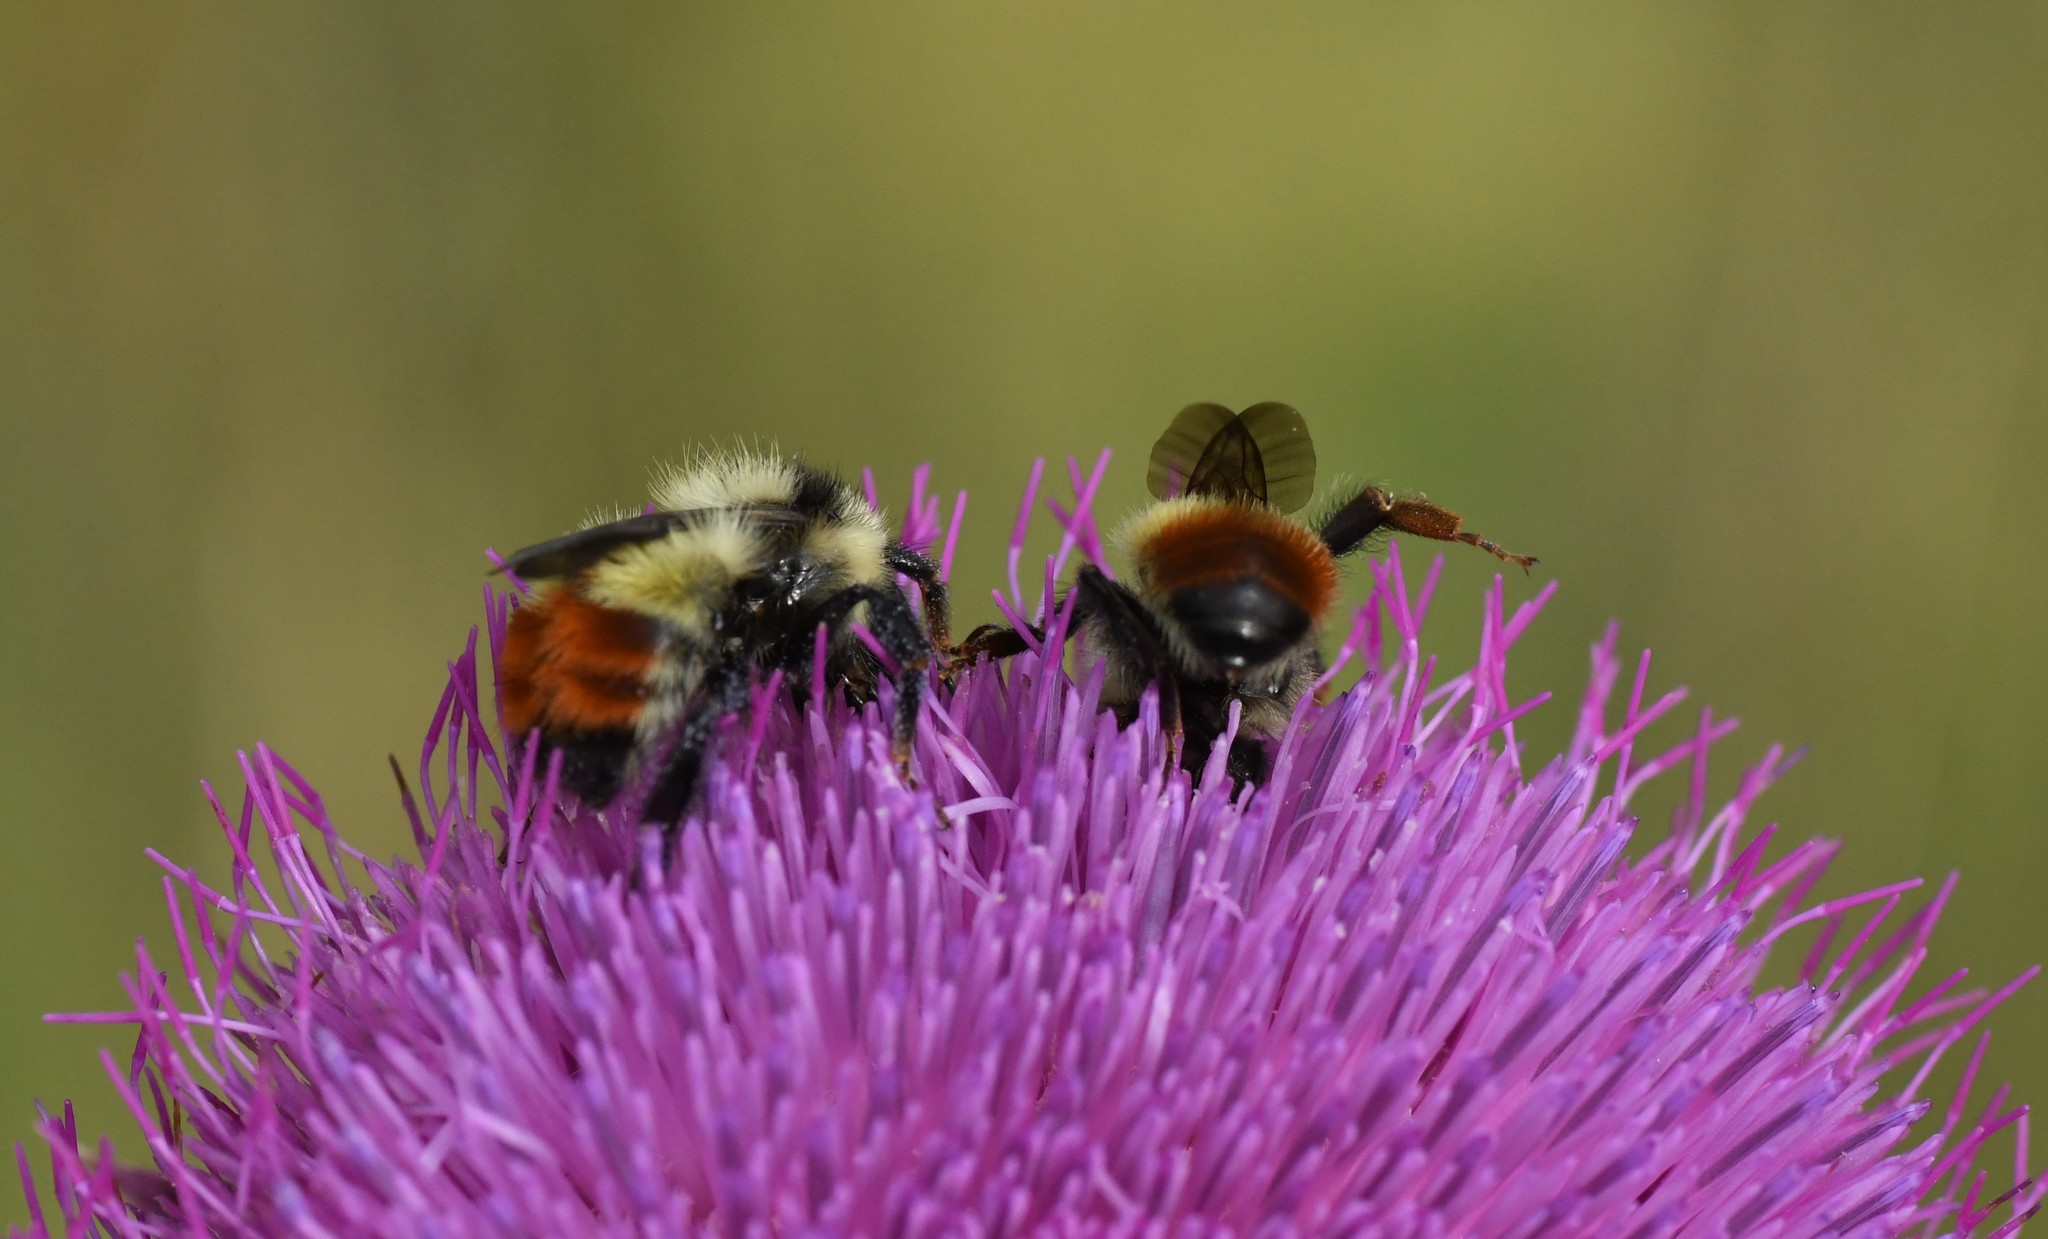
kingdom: Animalia
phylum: Arthropoda
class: Insecta
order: Hymenoptera
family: Apidae
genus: Bombus
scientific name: Bombus centralis
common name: Central bumble bee
